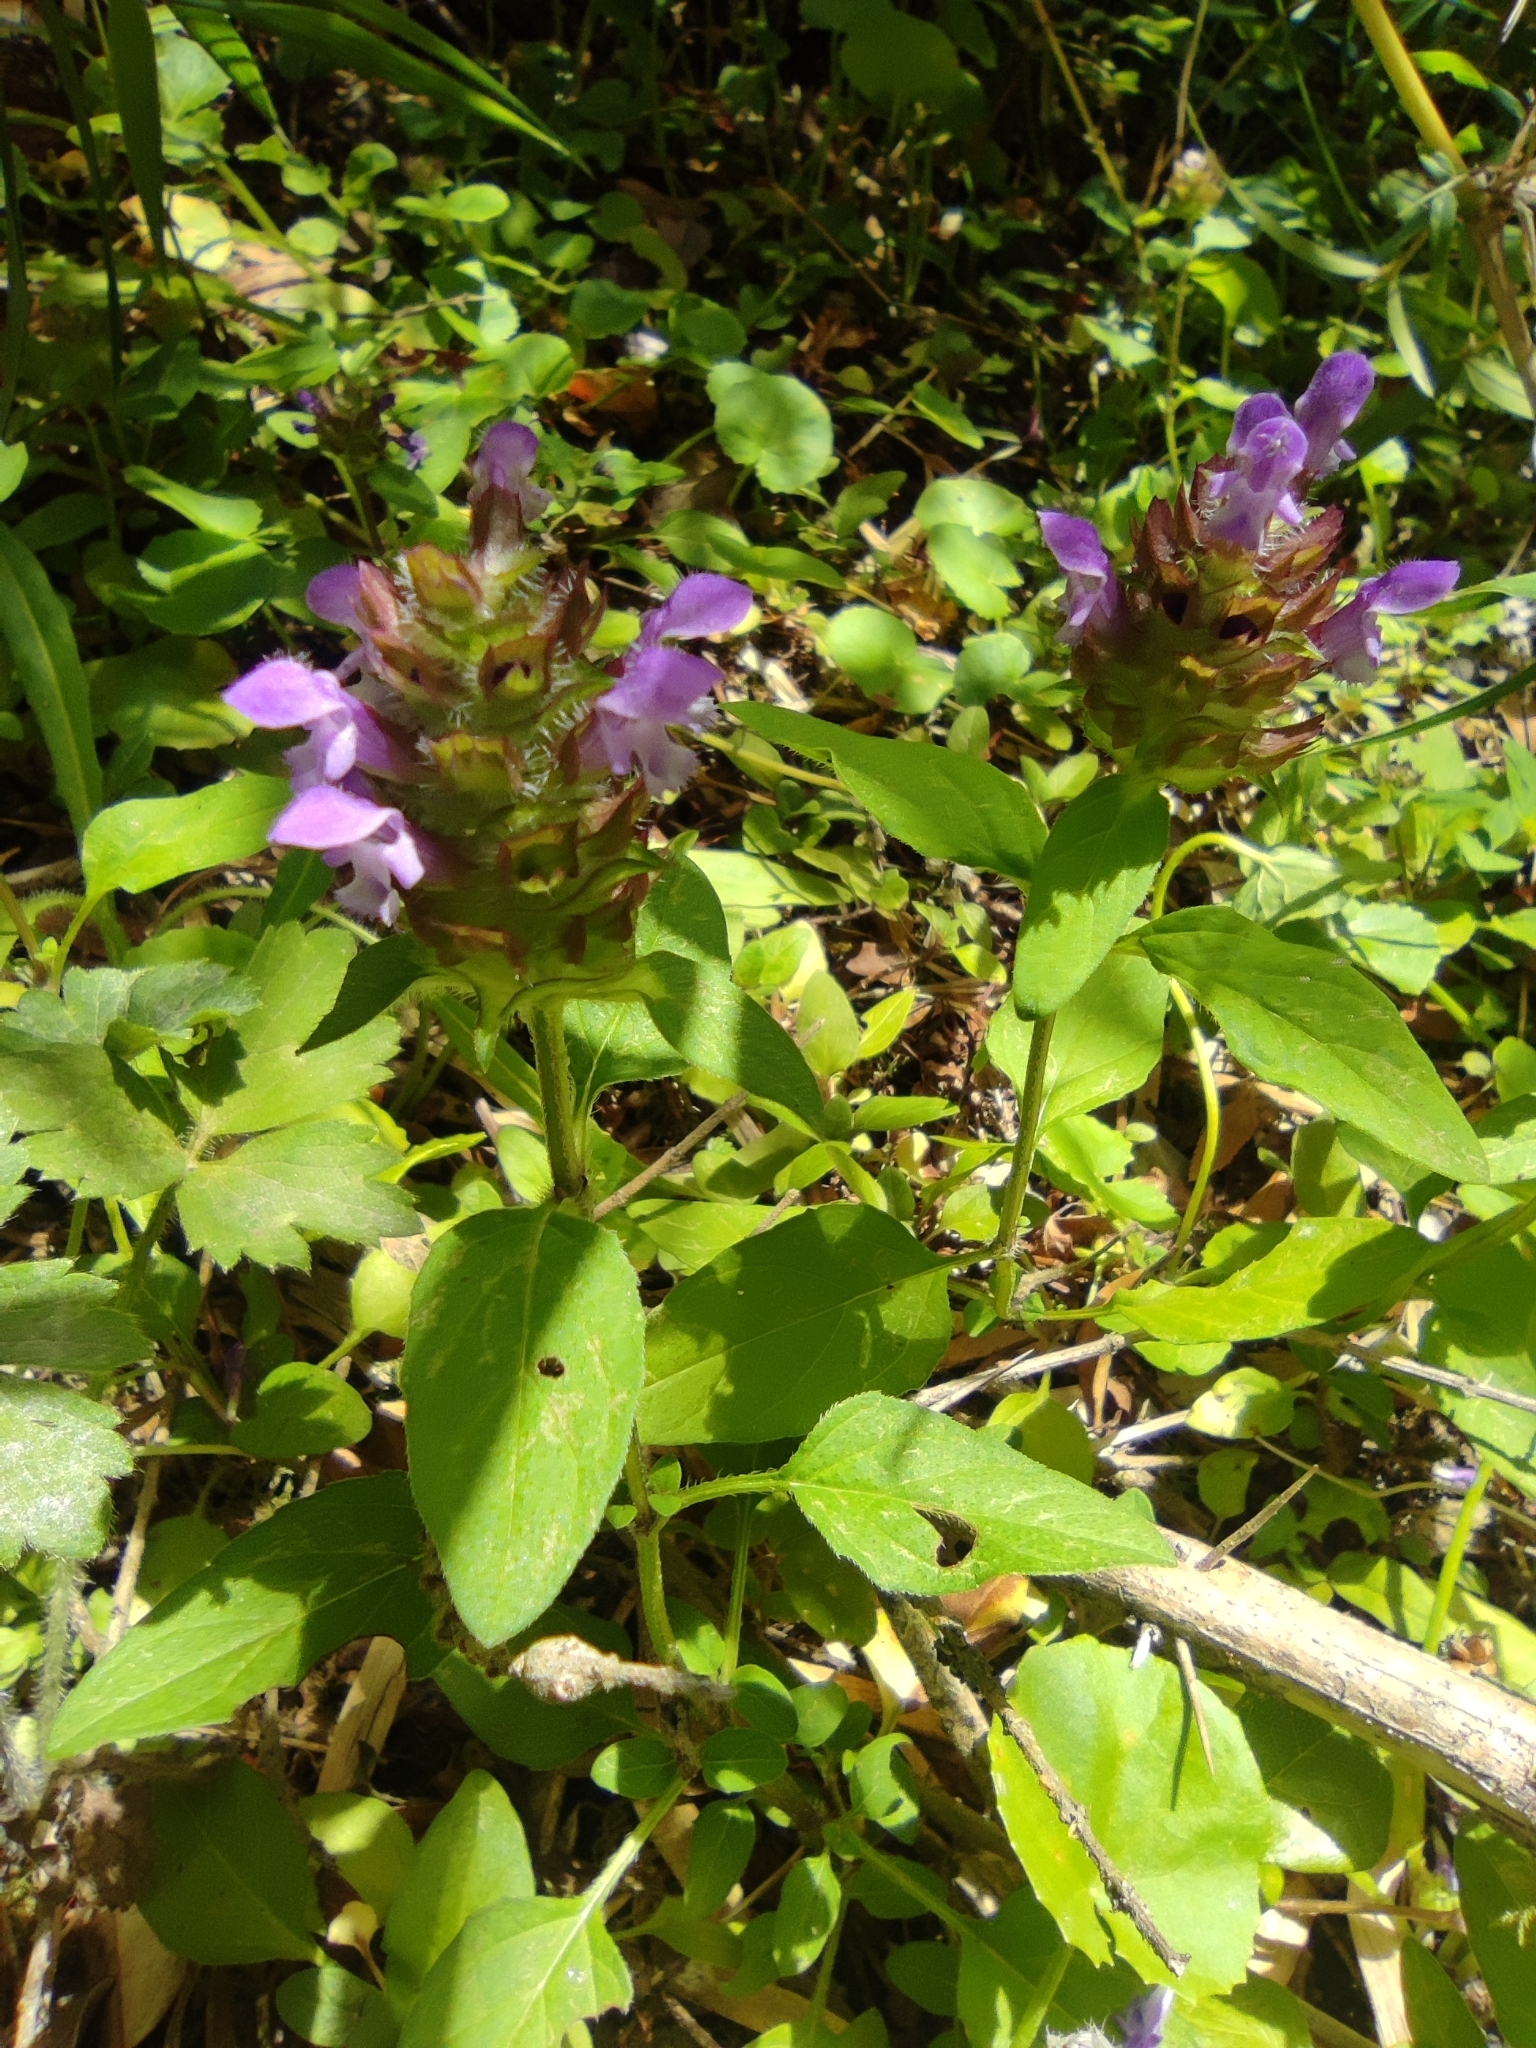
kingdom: Plantae
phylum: Tracheophyta
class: Magnoliopsida
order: Lamiales
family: Lamiaceae
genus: Prunella
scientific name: Prunella vulgaris
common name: Heal-all
